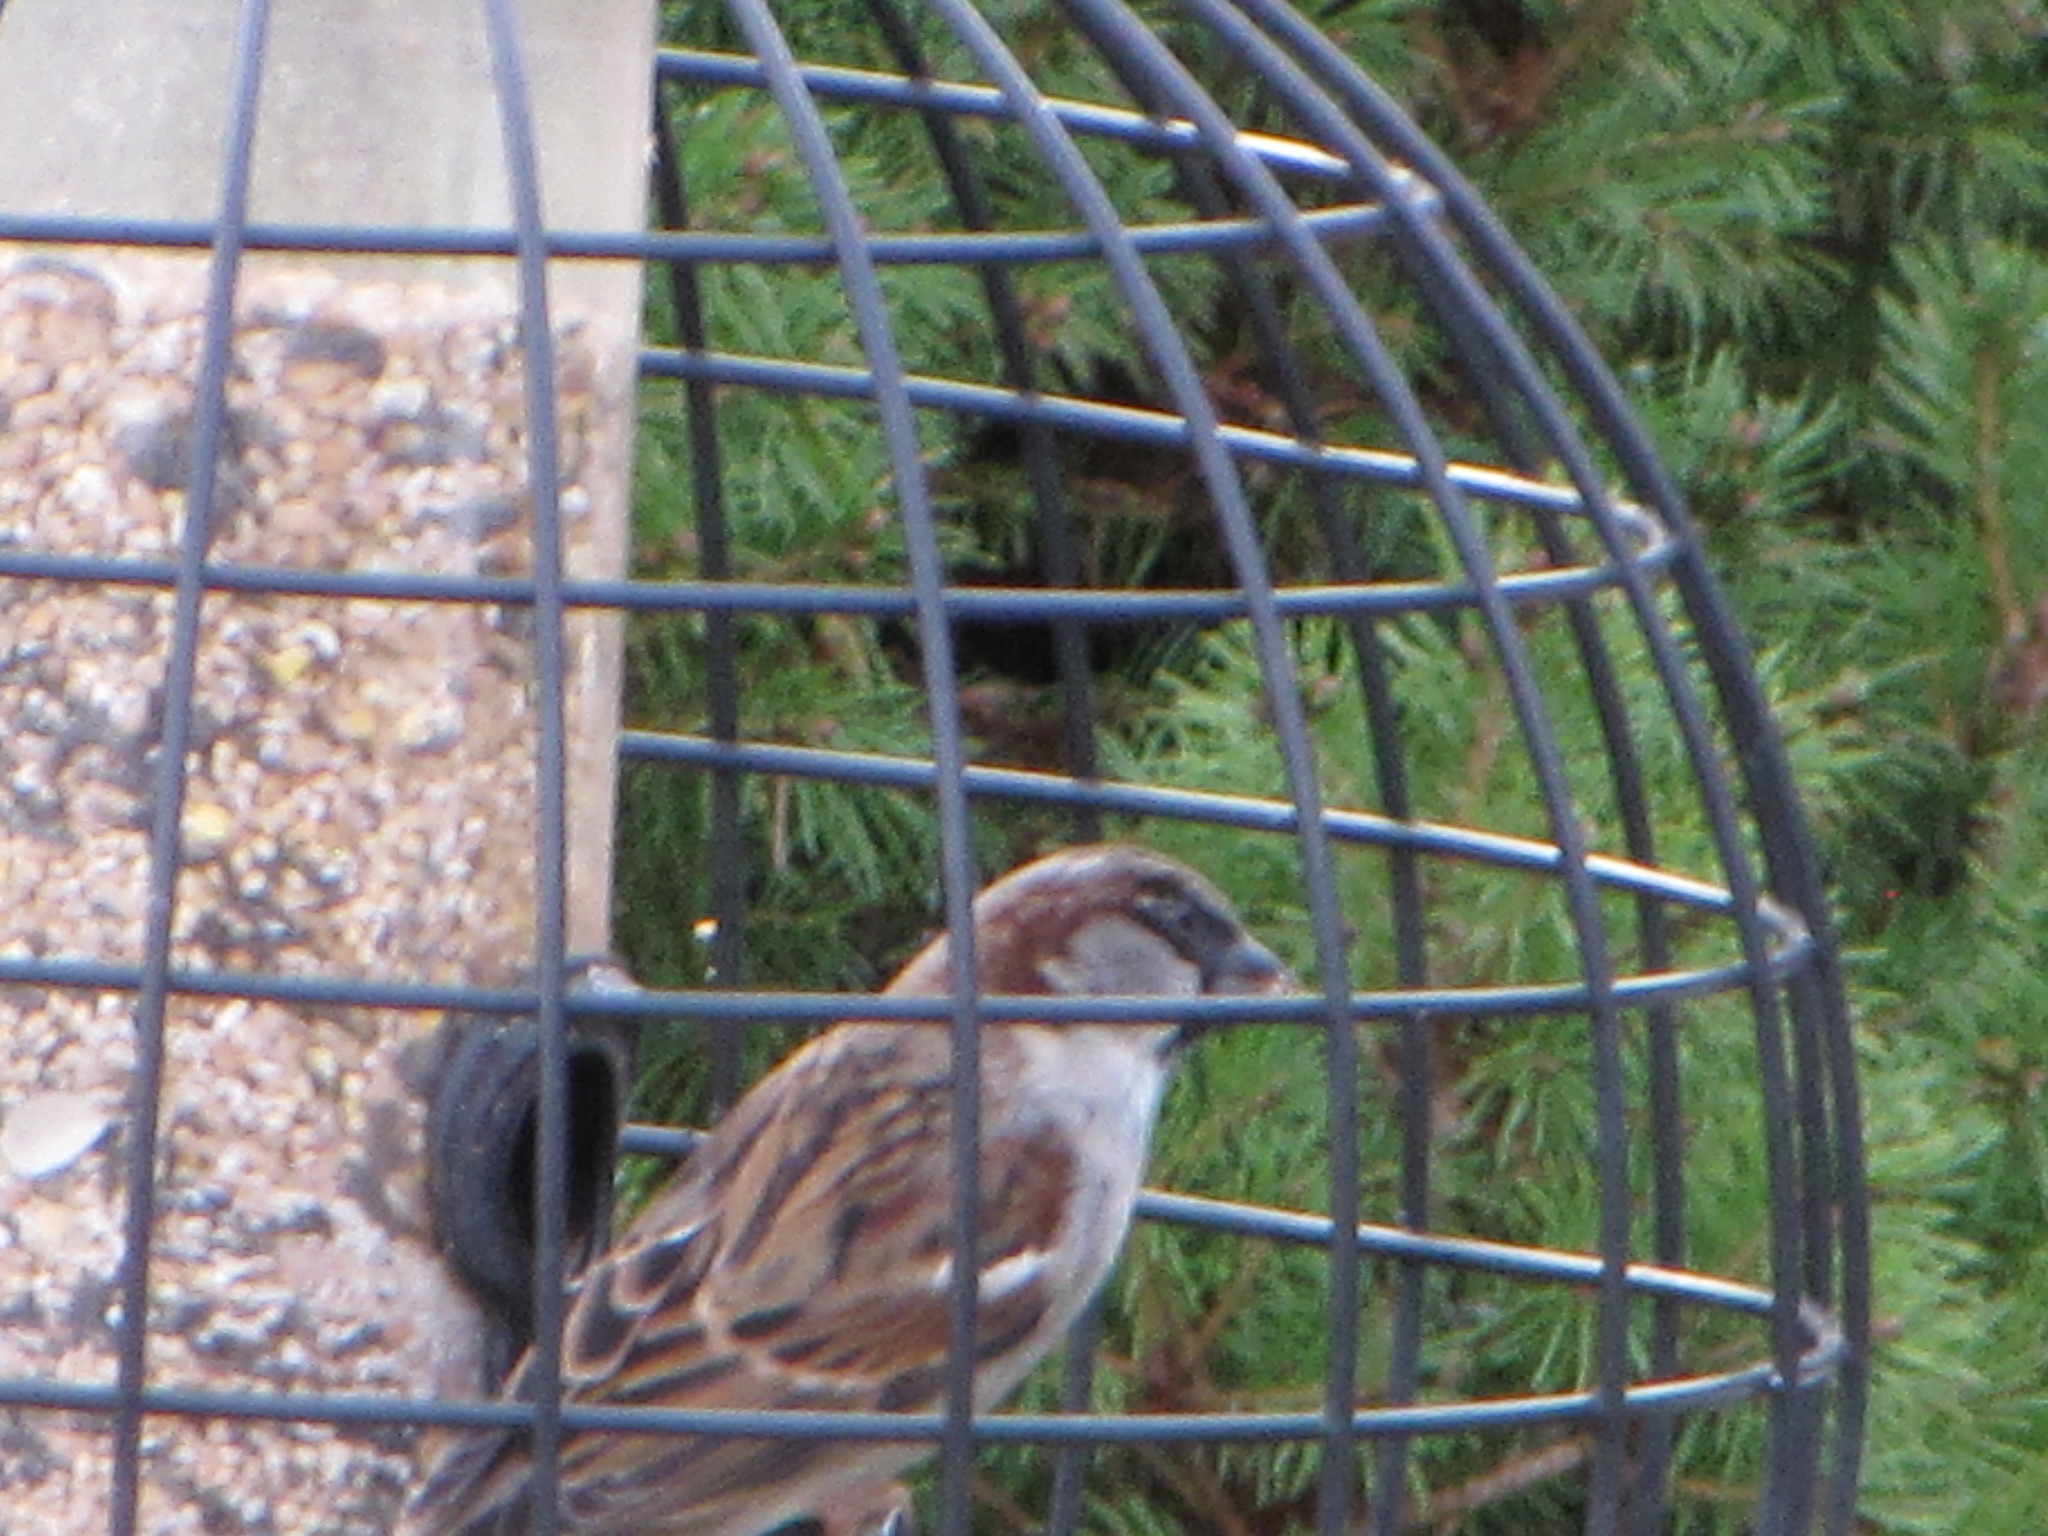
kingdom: Animalia
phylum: Chordata
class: Aves
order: Passeriformes
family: Passeridae
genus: Passer
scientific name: Passer domesticus
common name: House sparrow
